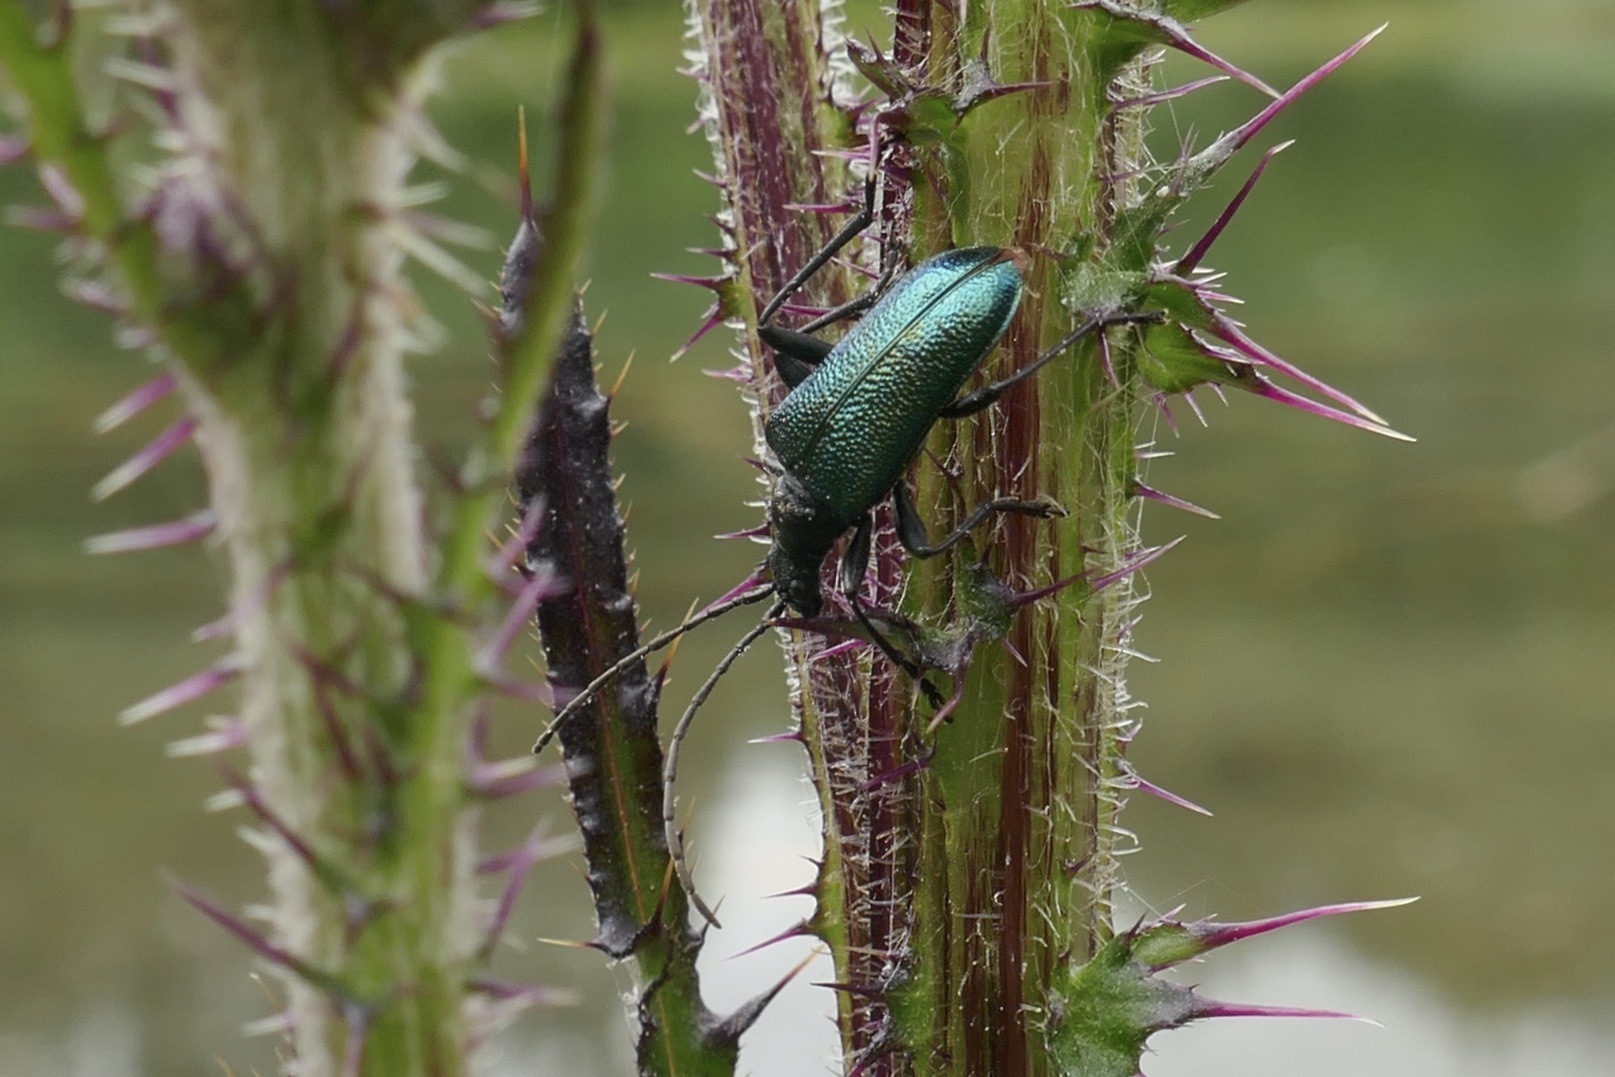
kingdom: Animalia
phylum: Arthropoda
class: Insecta
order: Coleoptera
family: Cerambycidae
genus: Gaurotes
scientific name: Gaurotes virginea
